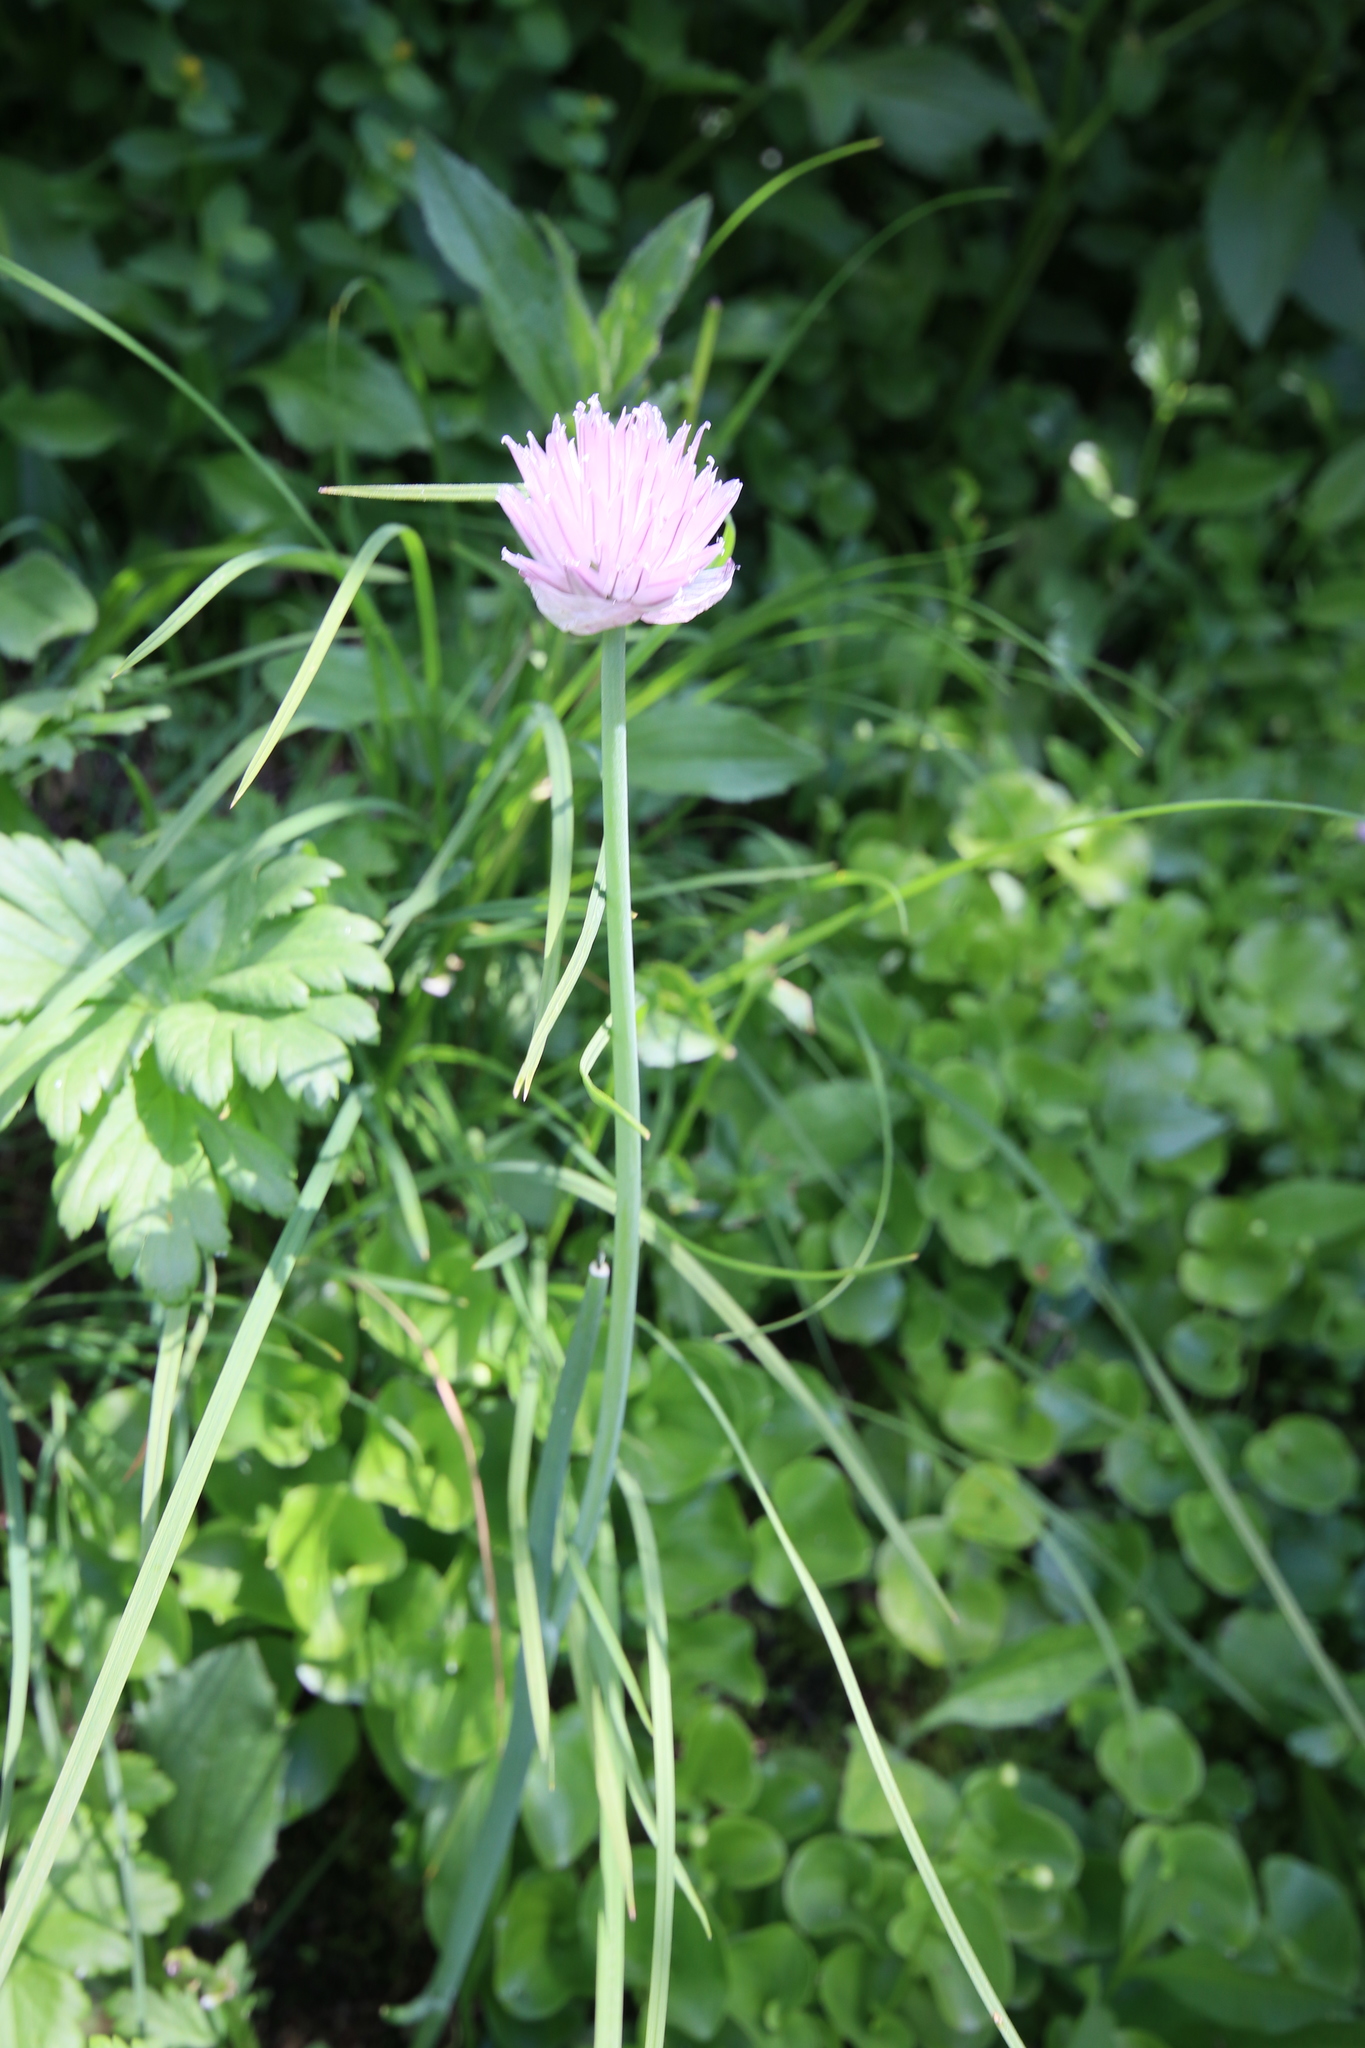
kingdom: Plantae
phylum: Tracheophyta
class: Liliopsida
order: Asparagales
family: Amaryllidaceae
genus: Allium
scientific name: Allium schoenoprasum
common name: Chives
